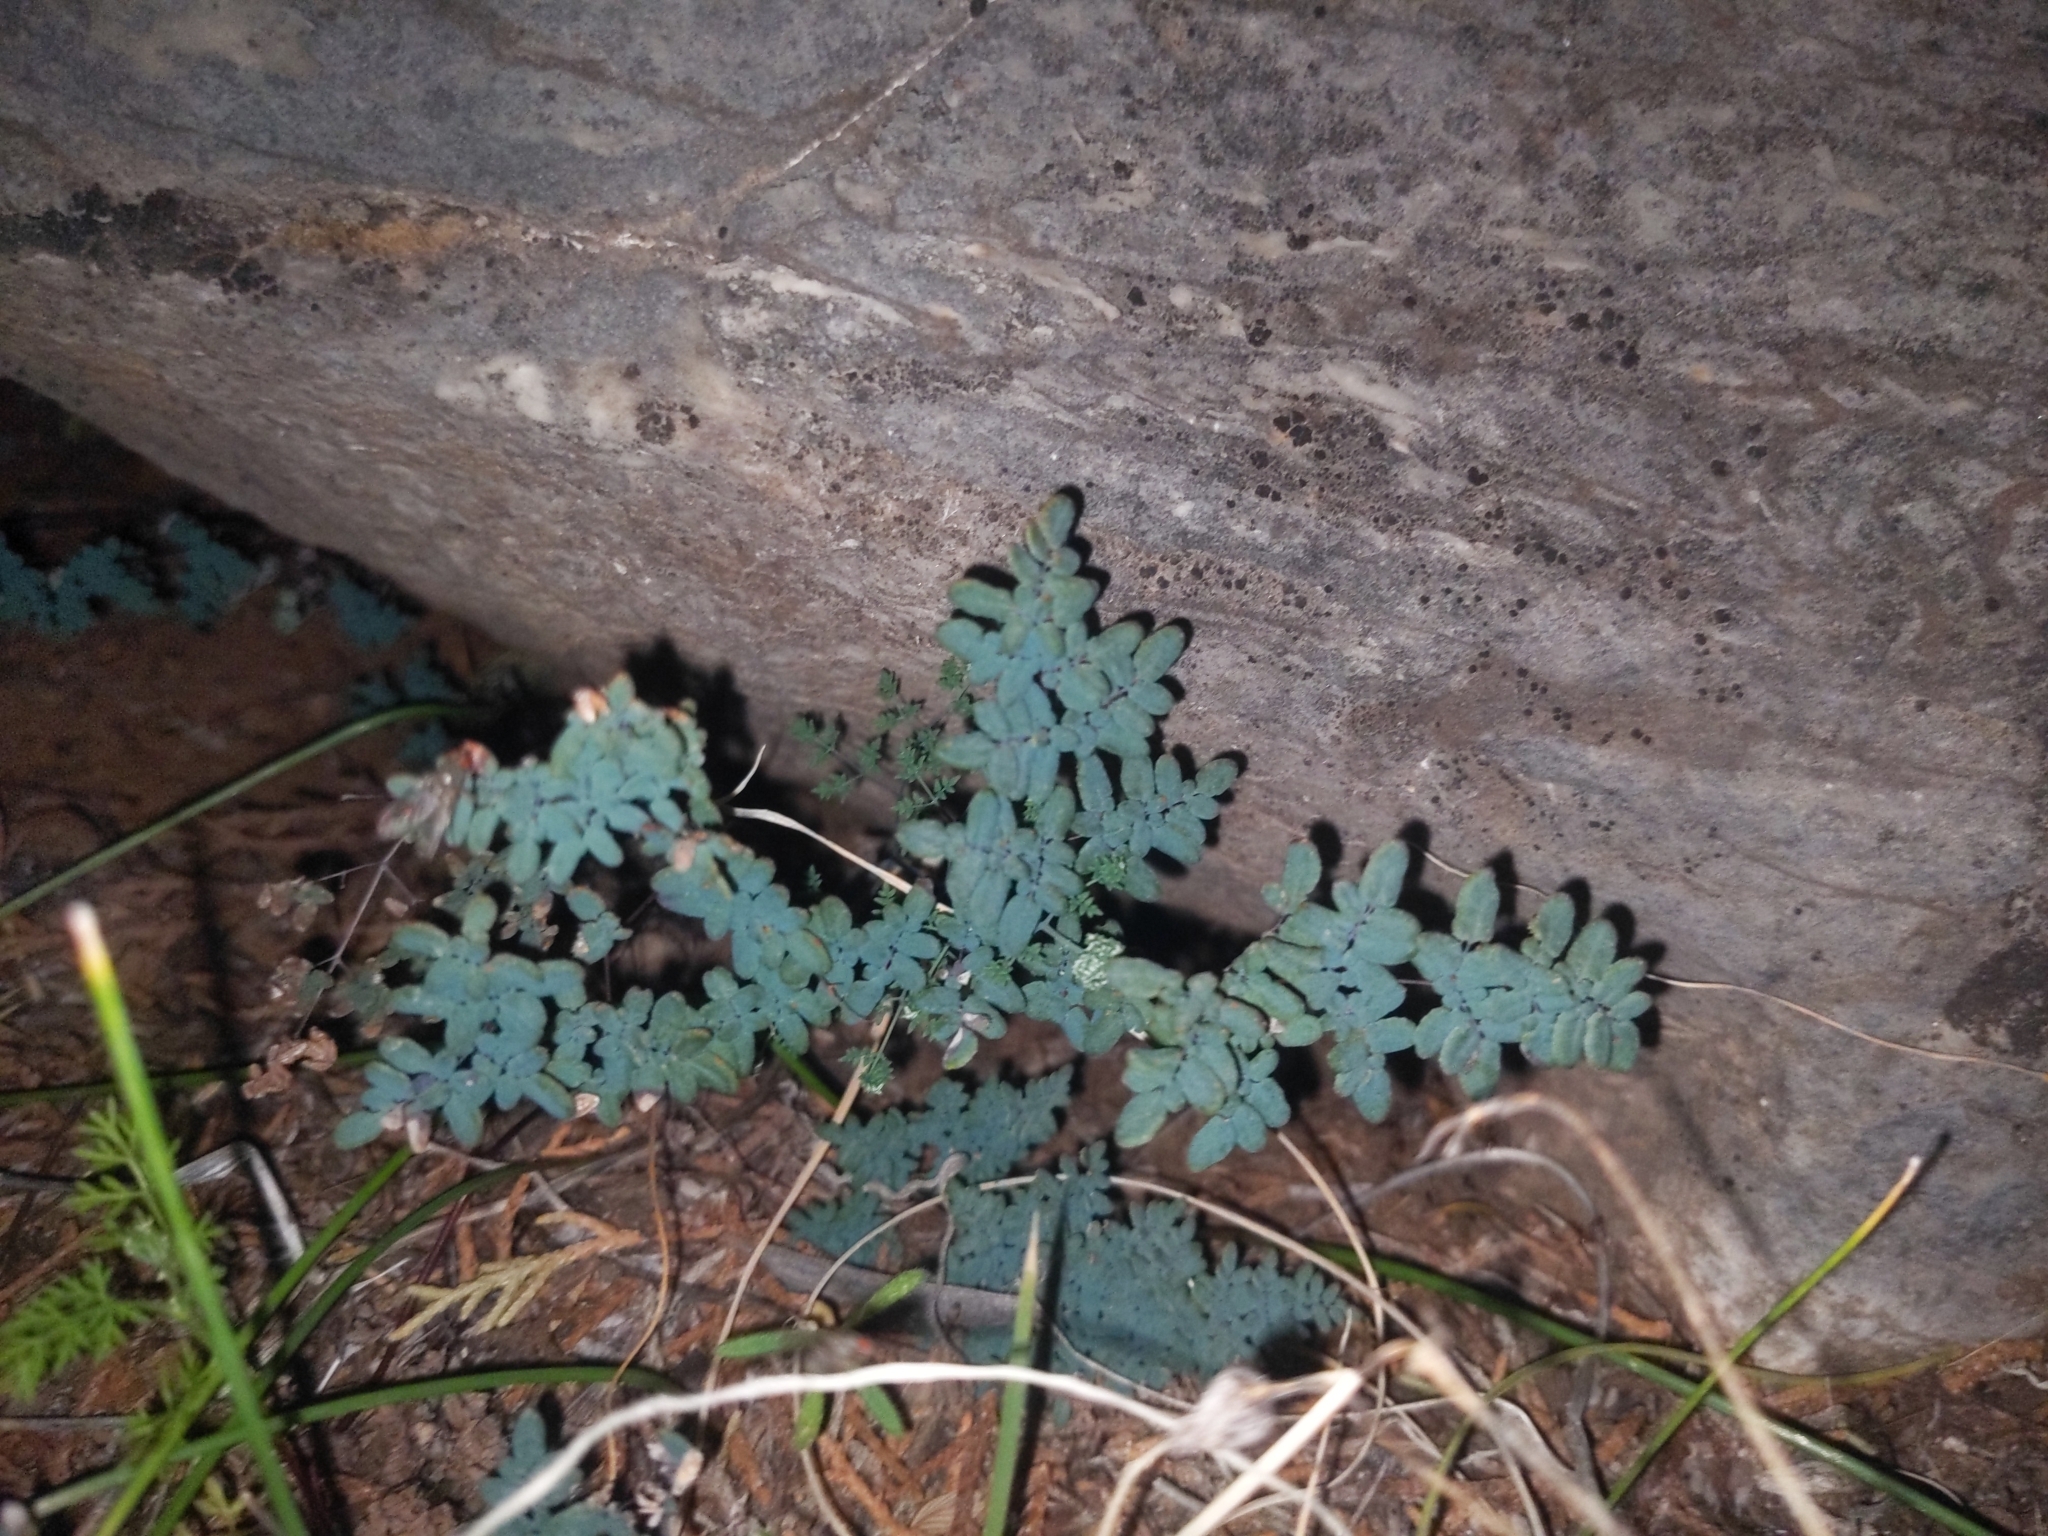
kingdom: Plantae
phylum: Tracheophyta
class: Polypodiopsida
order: Polypodiales
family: Pteridaceae
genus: Argyrochosma
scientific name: Argyrochosma limitanea
